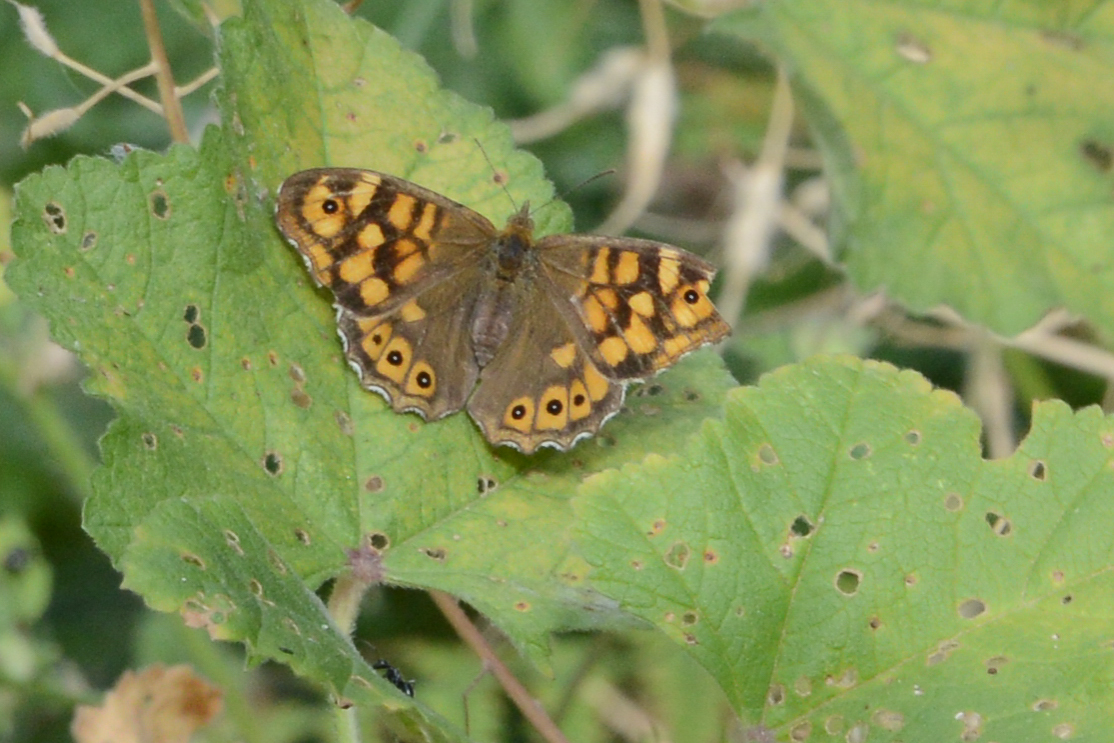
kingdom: Animalia
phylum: Arthropoda
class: Insecta
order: Lepidoptera
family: Nymphalidae
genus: Pararge
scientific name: Pararge aegeria
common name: Speckled wood
